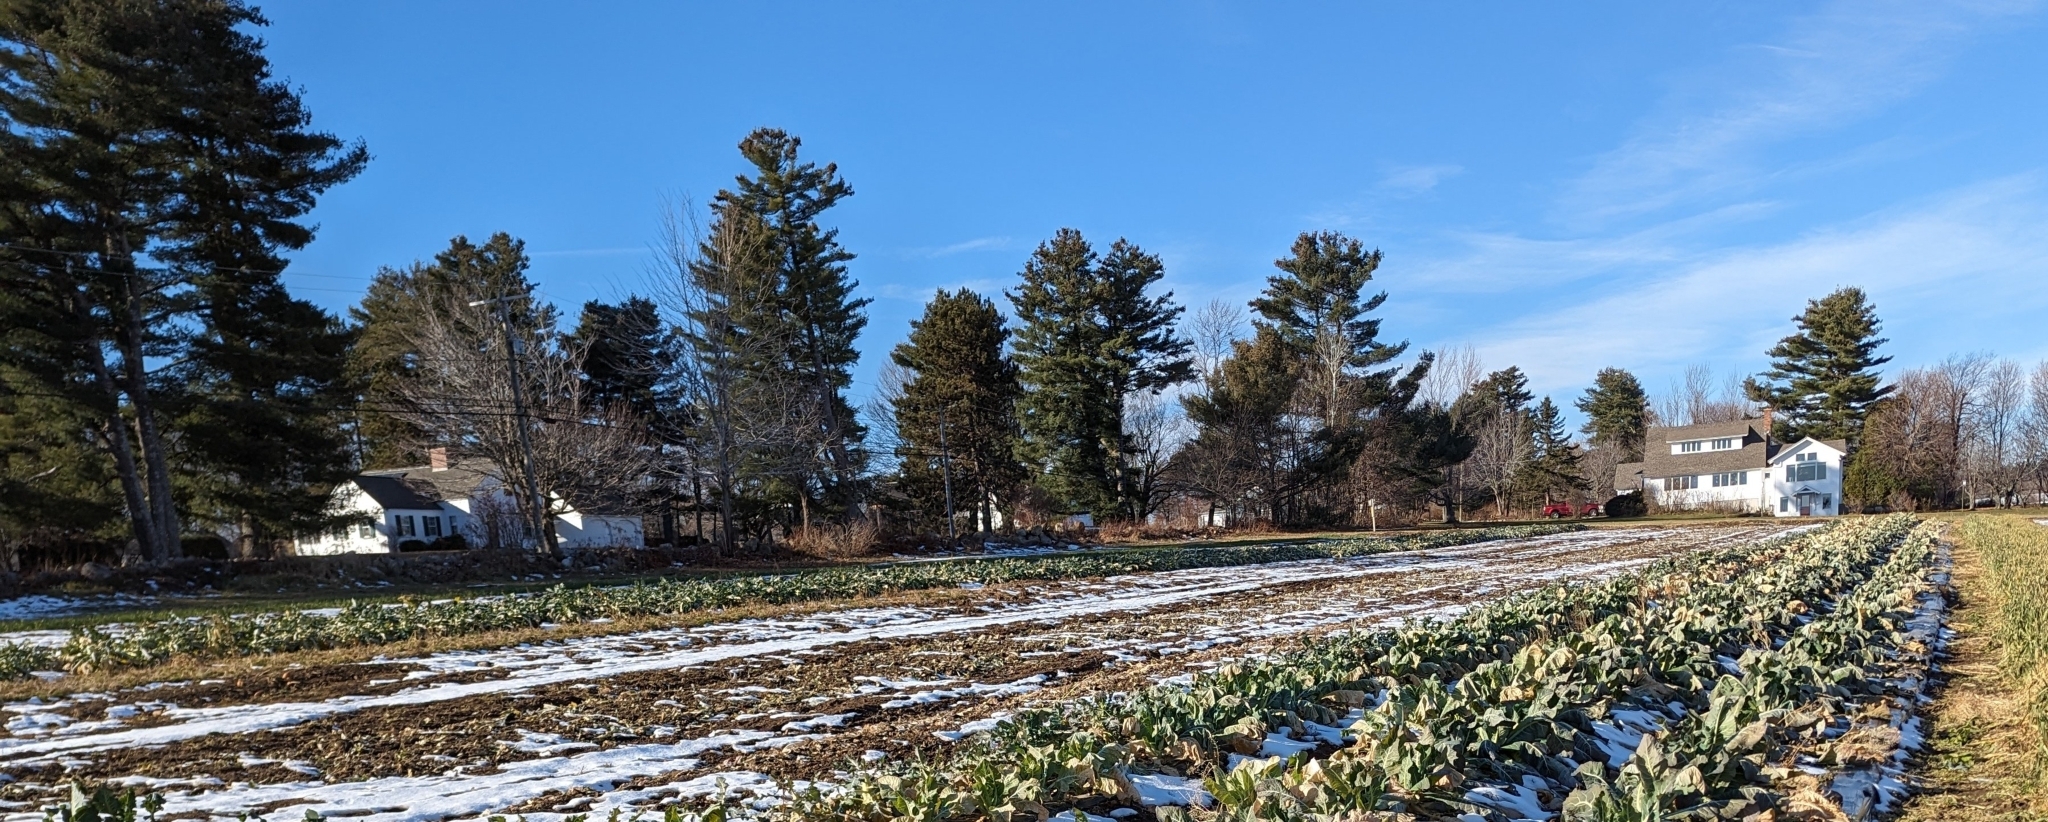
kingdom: Plantae
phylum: Tracheophyta
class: Pinopsida
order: Pinales
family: Pinaceae
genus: Pinus
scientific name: Pinus strobus
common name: Weymouth pine
